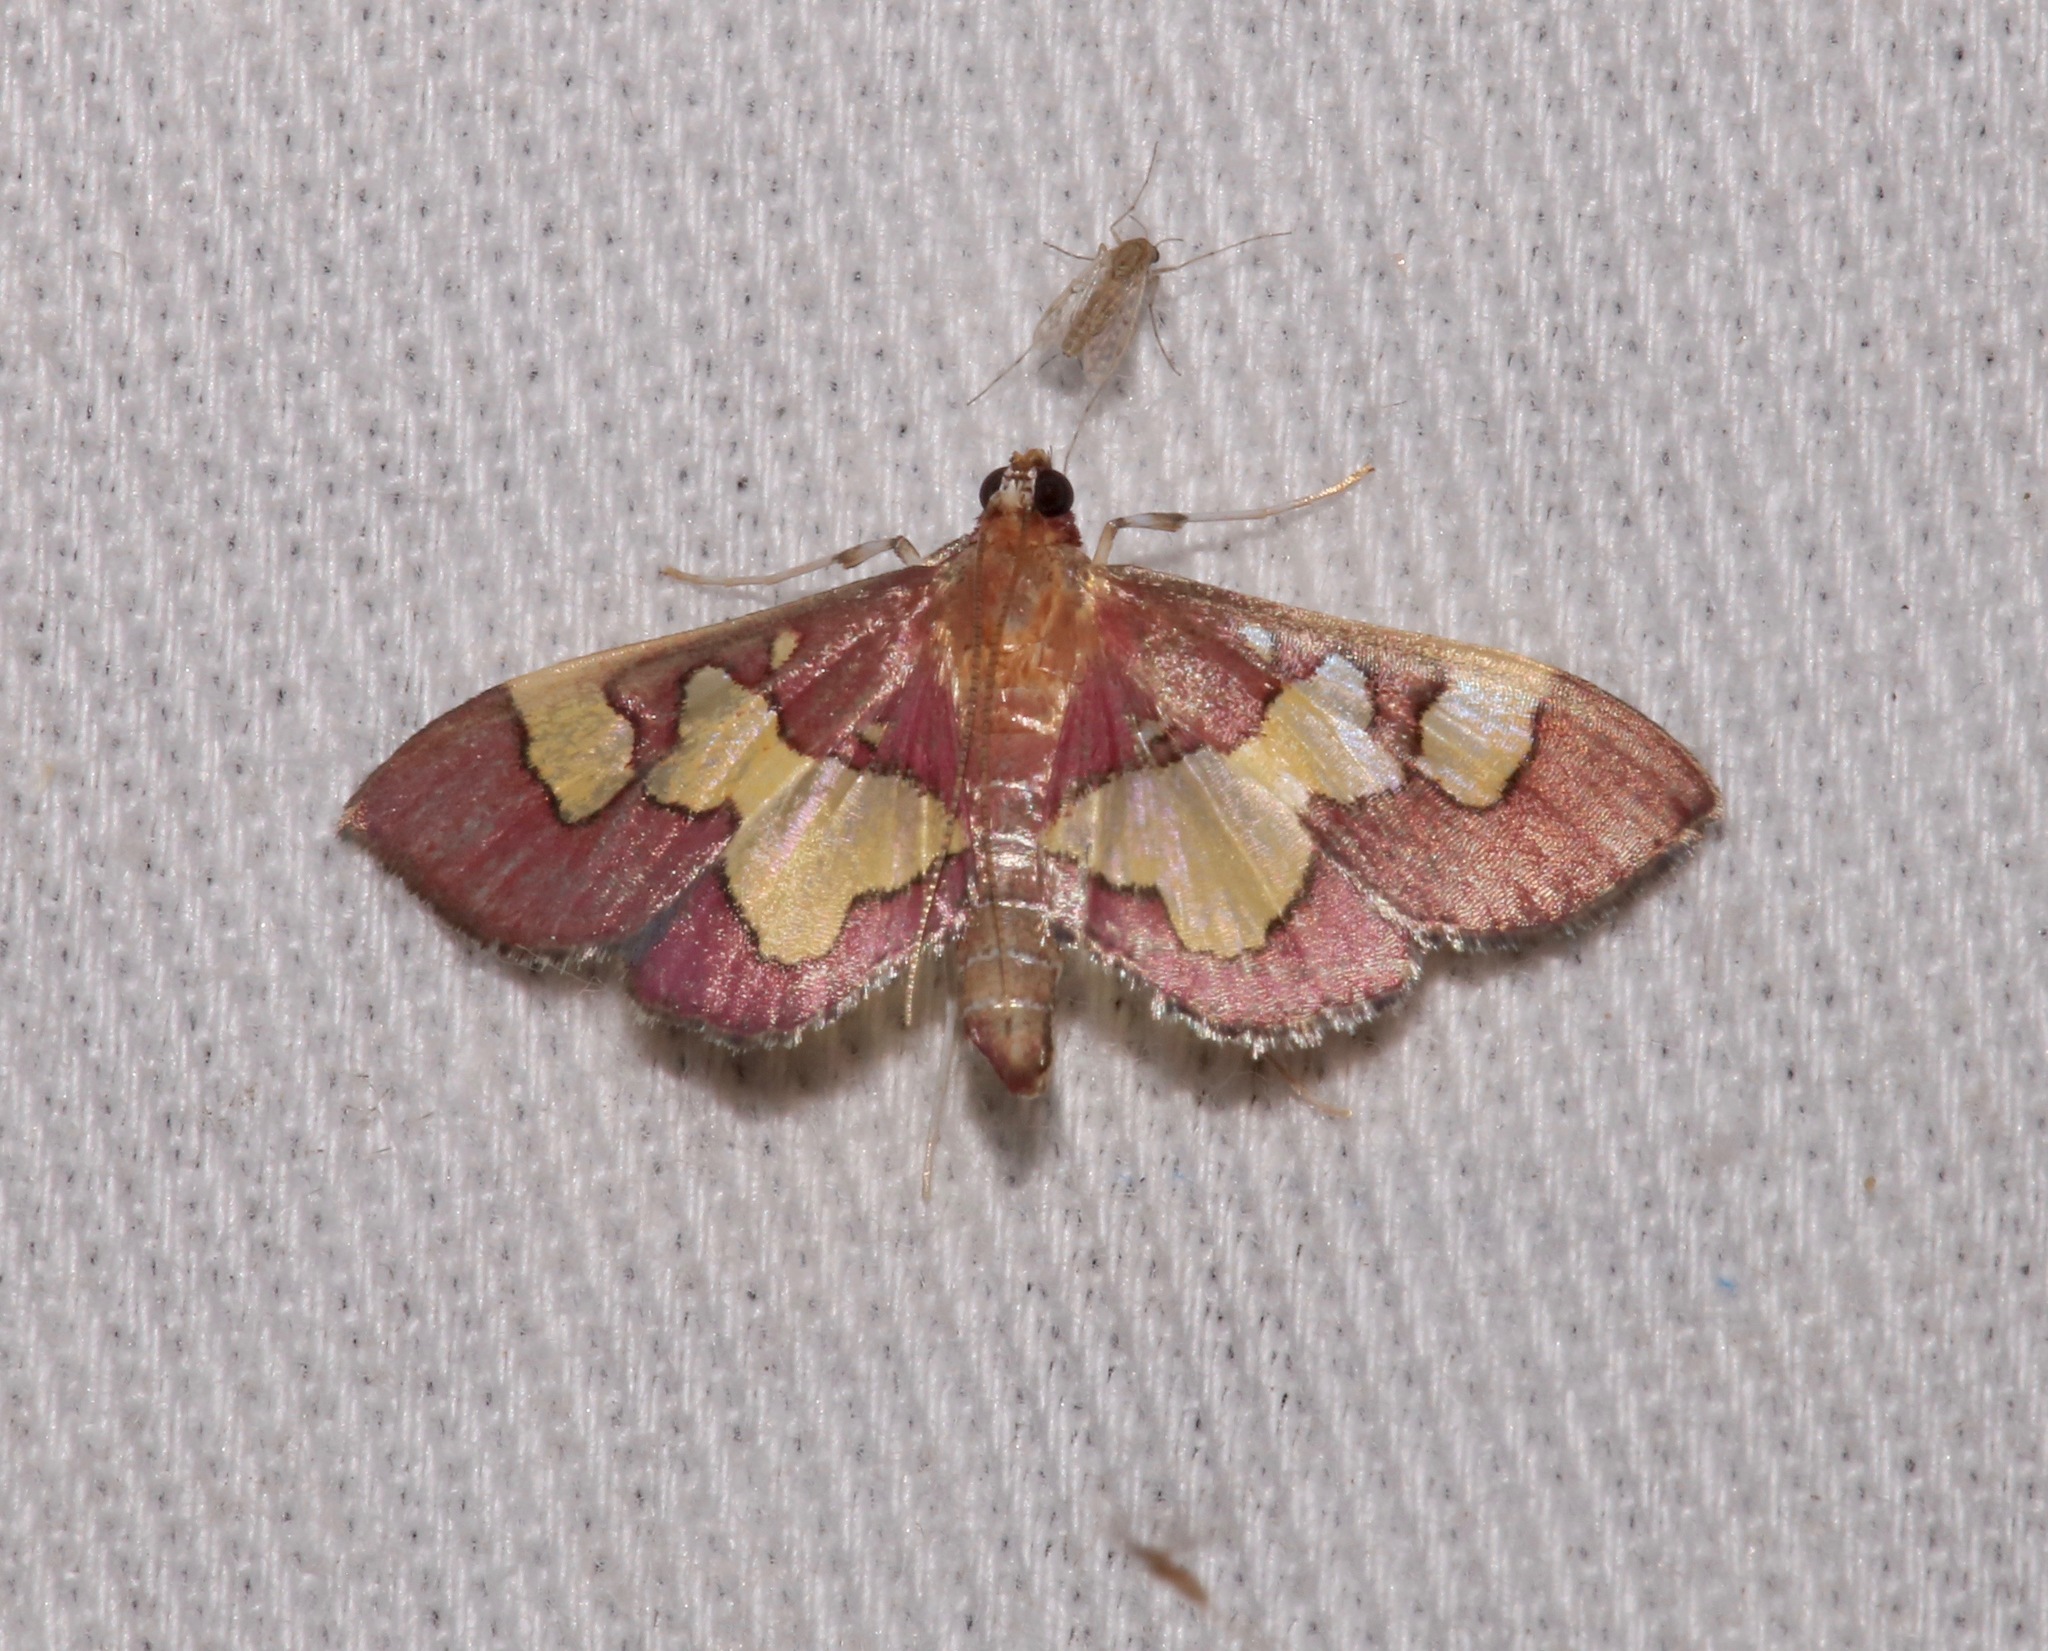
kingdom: Animalia
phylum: Arthropoda
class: Insecta
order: Lepidoptera
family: Crambidae
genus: Colomychus
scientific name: Colomychus talis
